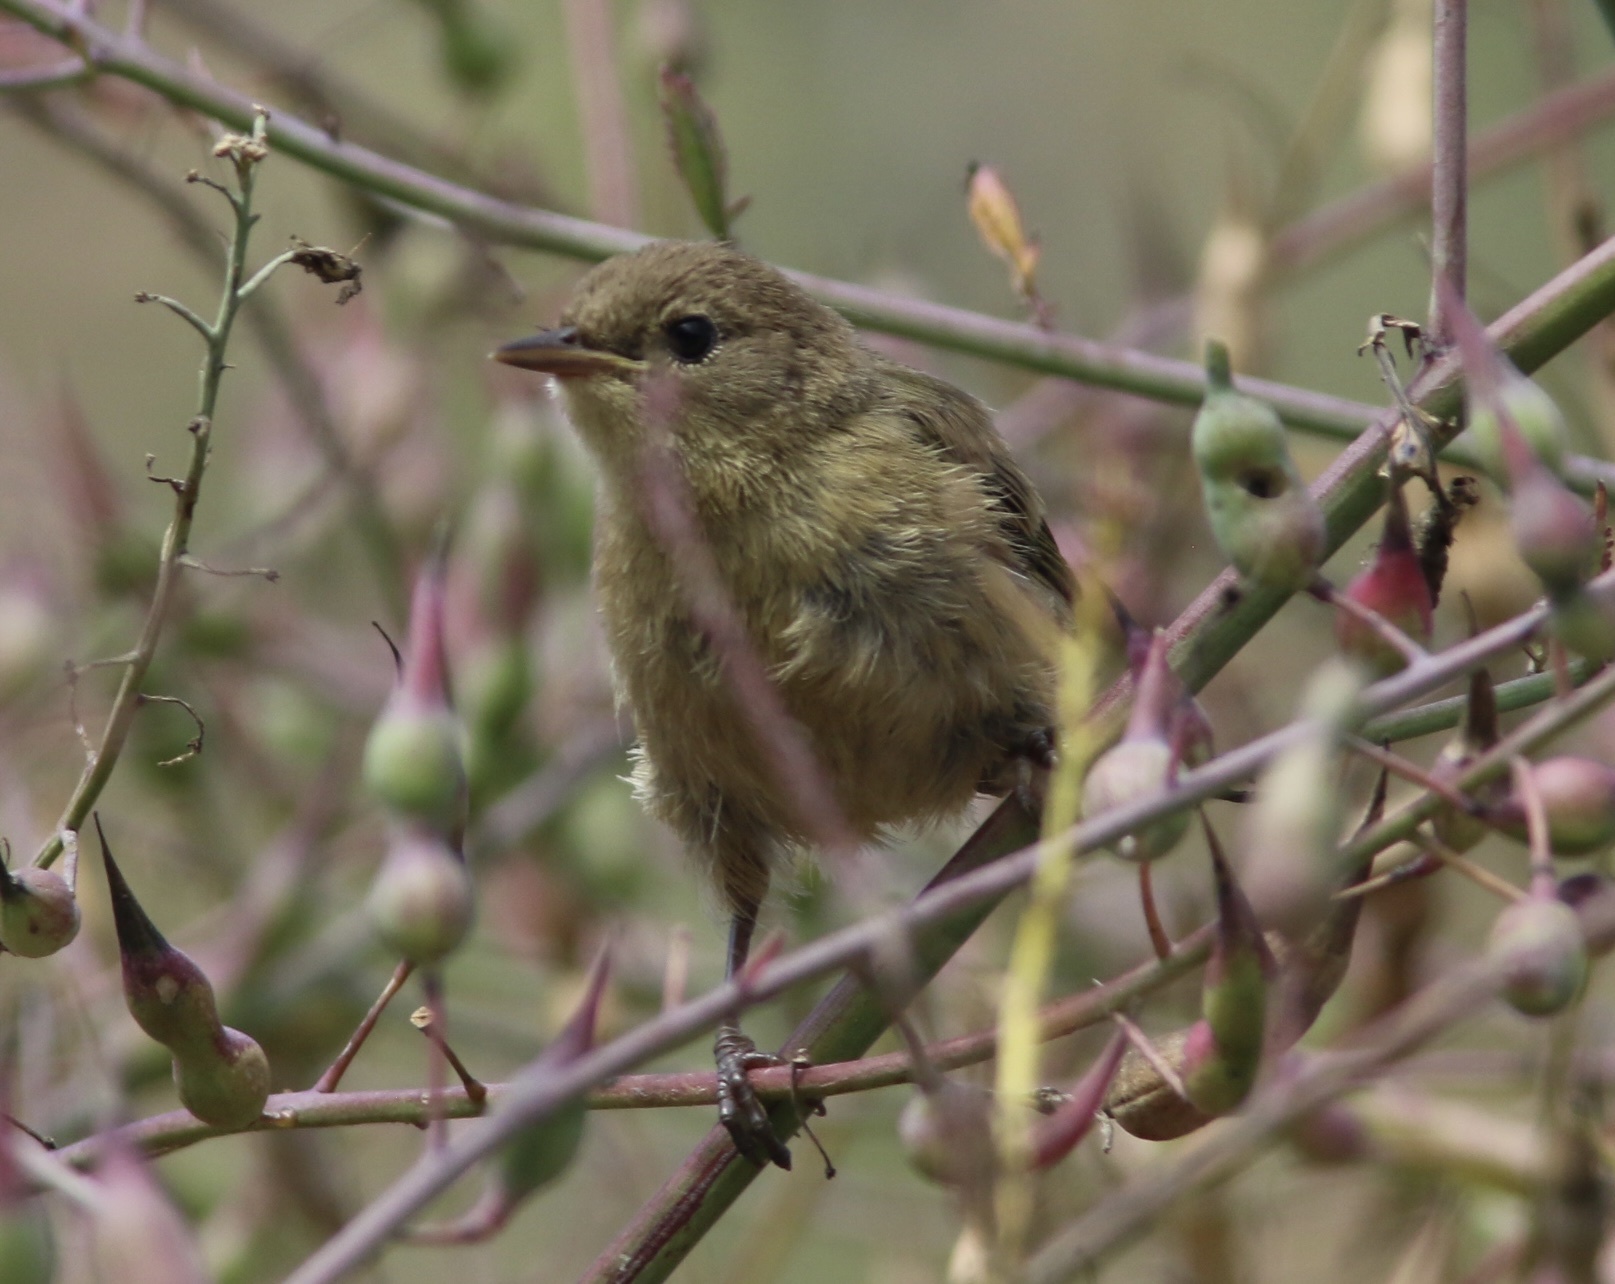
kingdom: Animalia
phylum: Chordata
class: Aves
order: Passeriformes
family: Parulidae
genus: Geothlypis
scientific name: Geothlypis trichas
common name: Common yellowthroat
